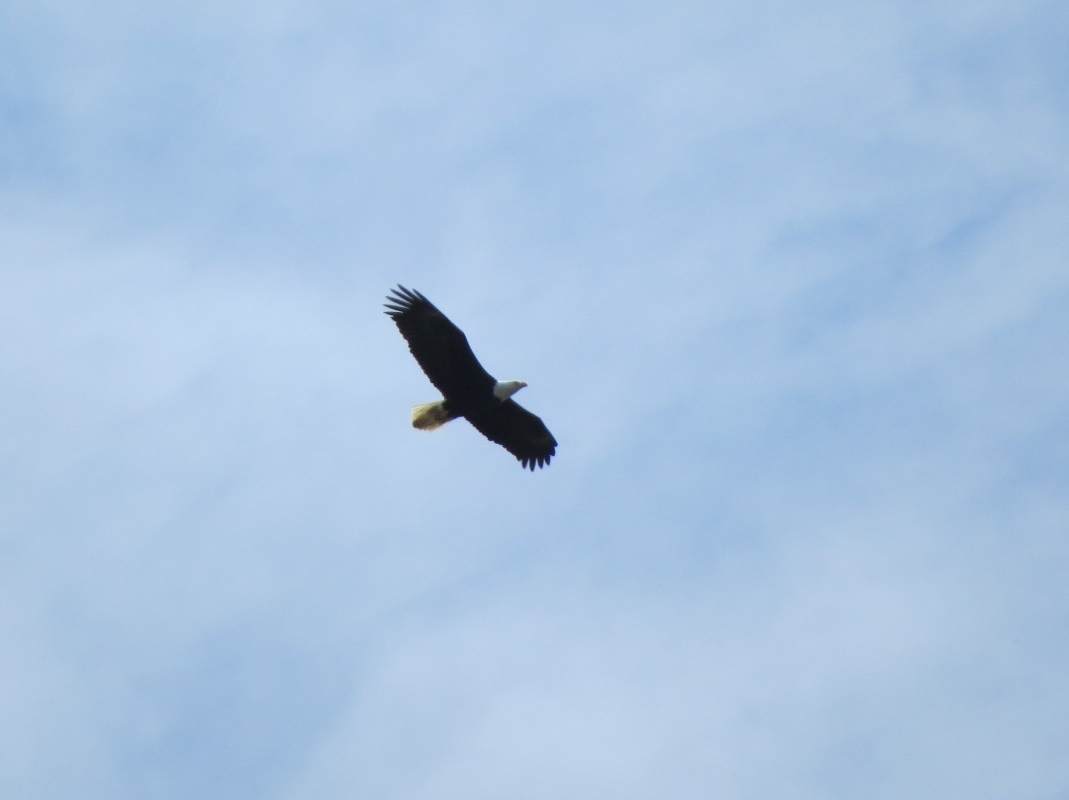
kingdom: Animalia
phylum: Chordata
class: Aves
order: Accipitriformes
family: Accipitridae
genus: Haliaeetus
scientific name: Haliaeetus leucocephalus
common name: Bald eagle
